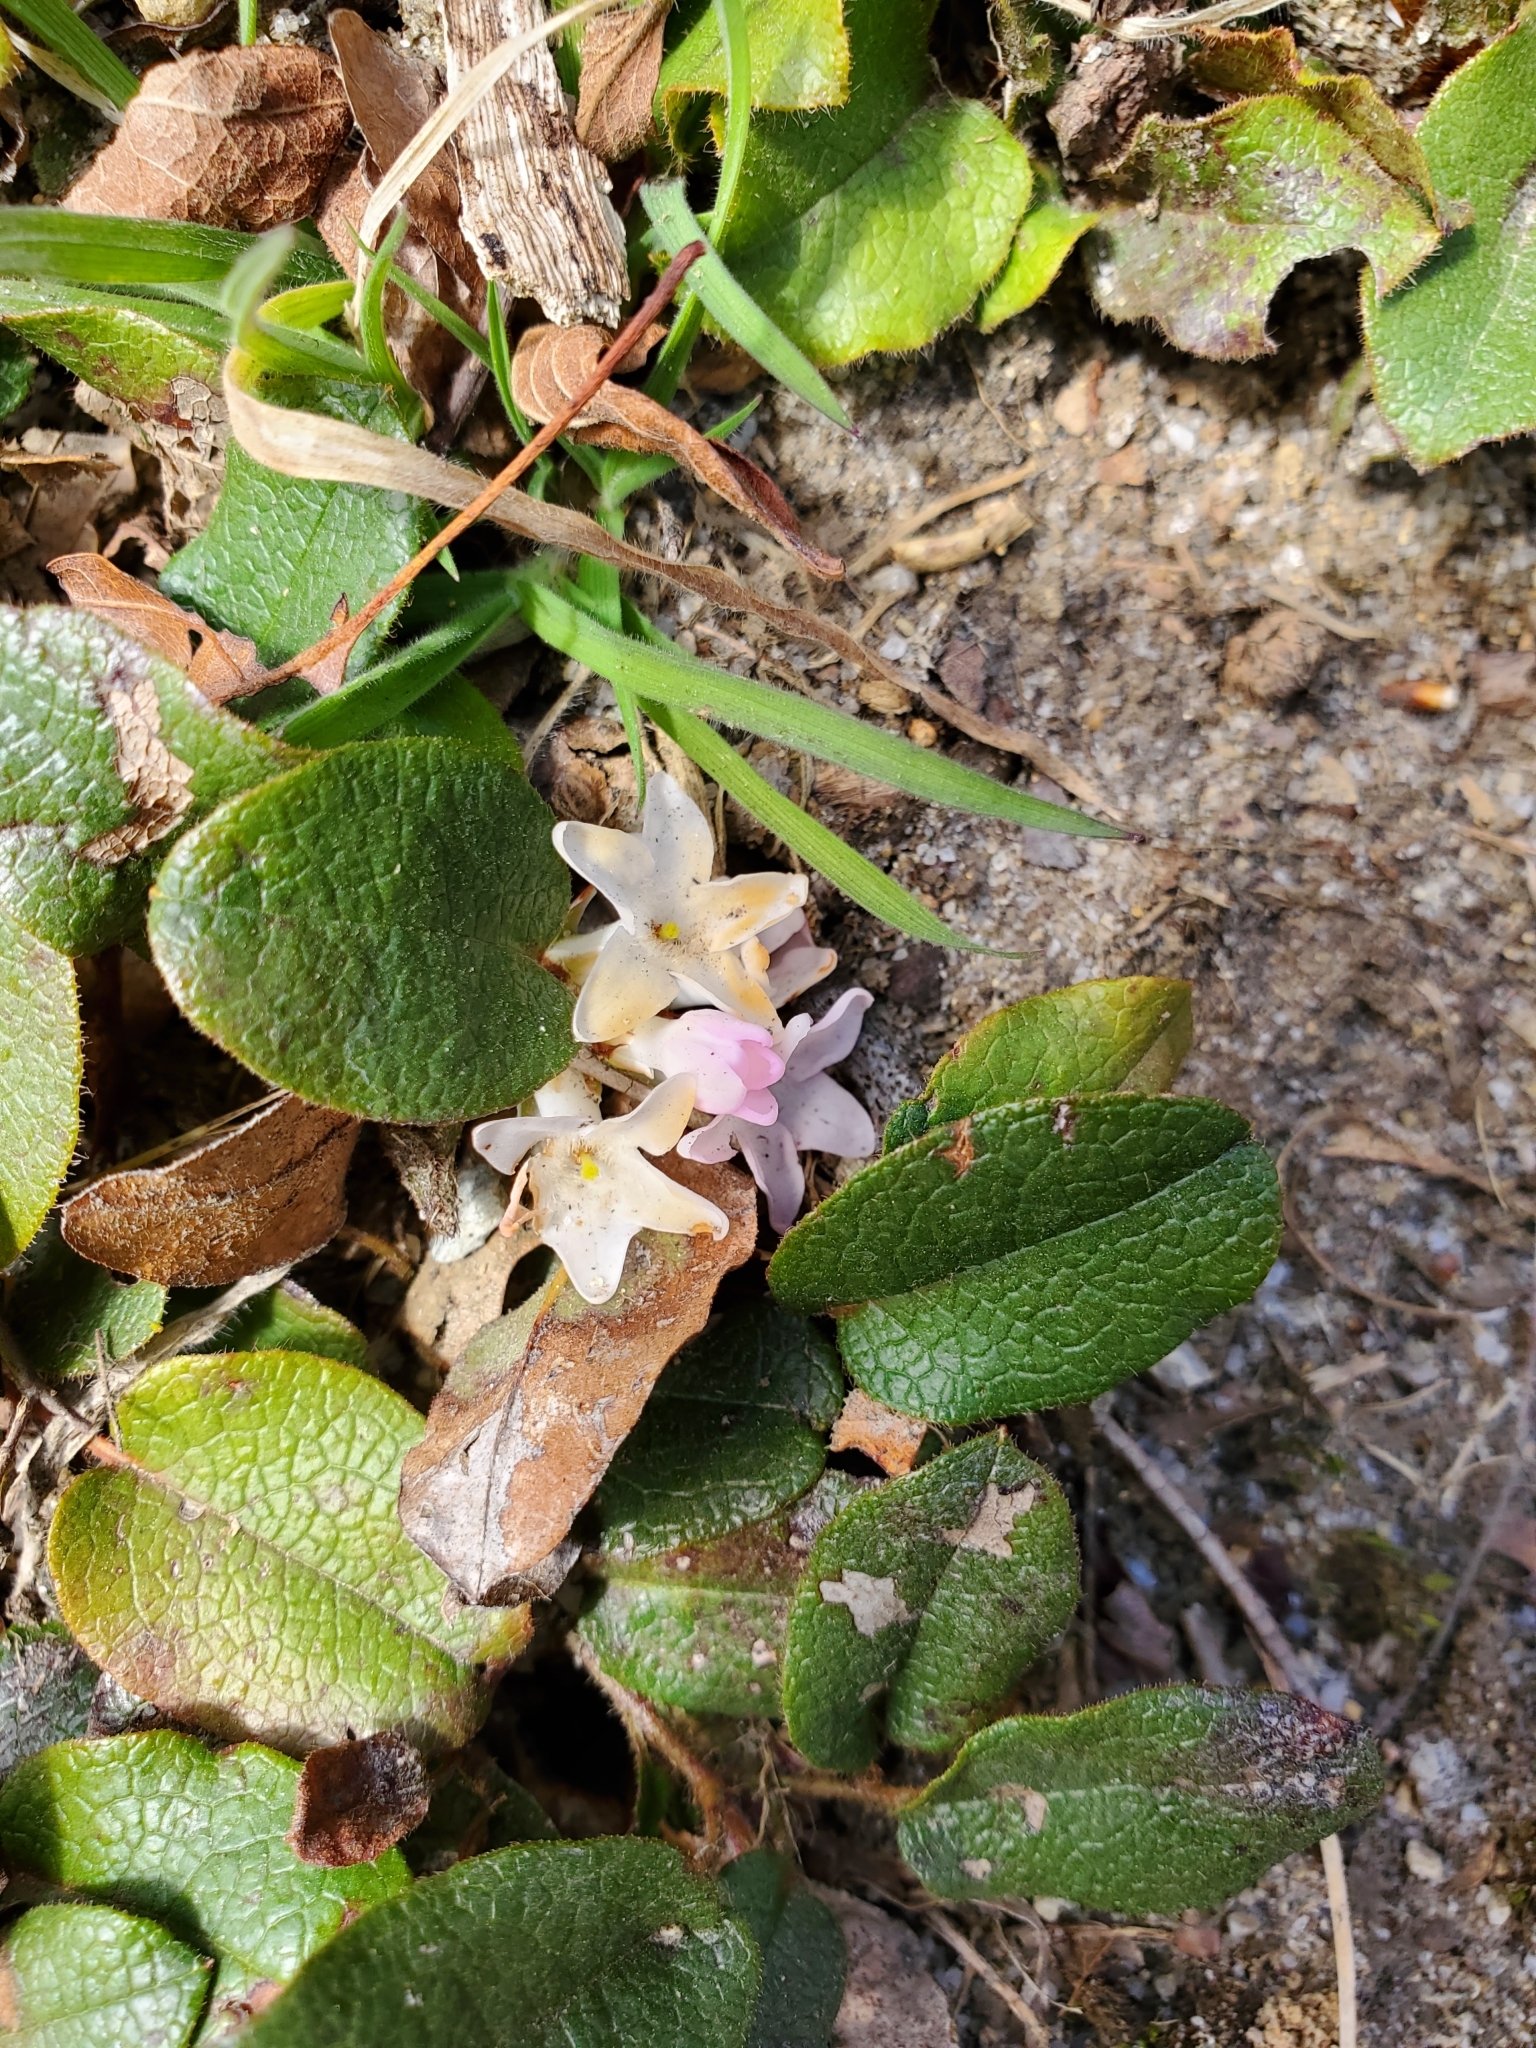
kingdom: Plantae
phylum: Tracheophyta
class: Magnoliopsida
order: Ericales
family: Ericaceae
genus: Epigaea
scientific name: Epigaea repens
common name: Gravelroot
